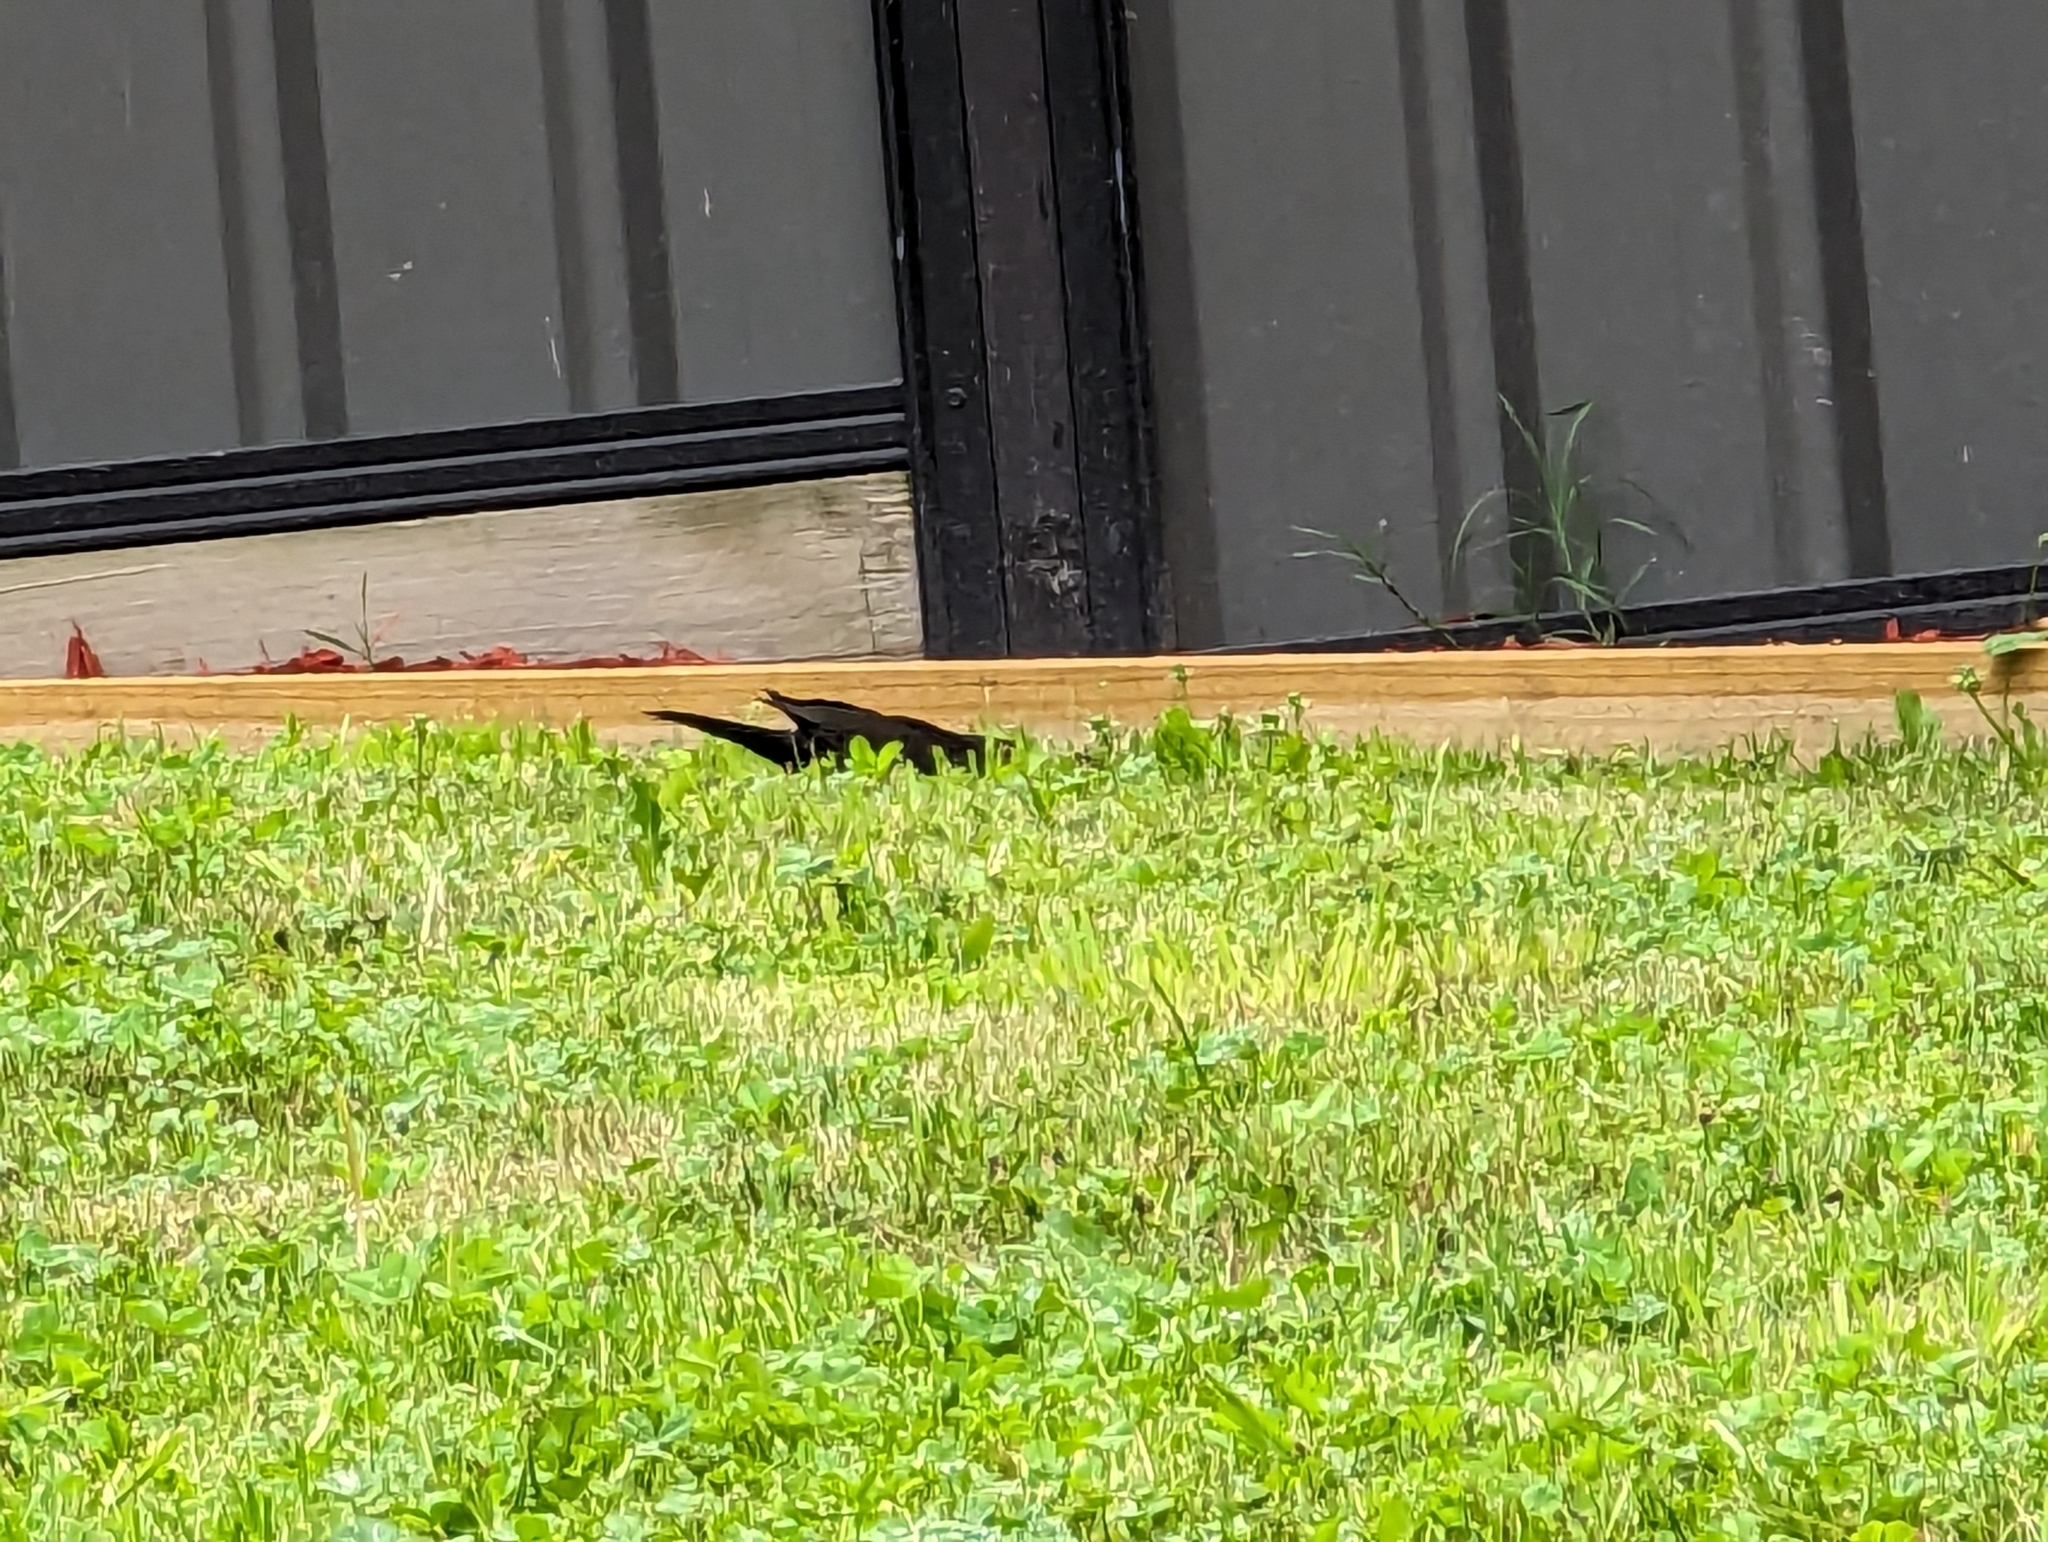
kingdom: Animalia
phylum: Chordata
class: Aves
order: Passeriformes
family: Turdidae
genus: Turdus
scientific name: Turdus merula
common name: Common blackbird
